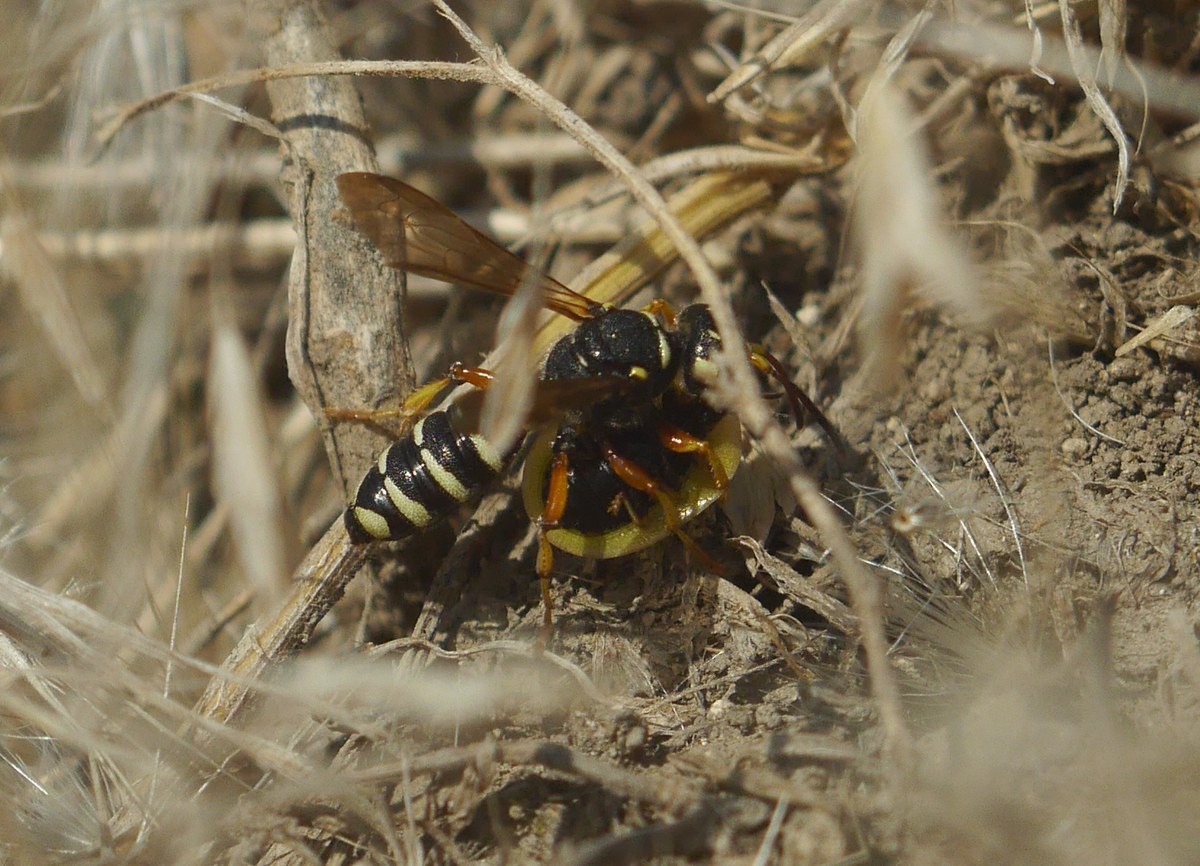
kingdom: Animalia
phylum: Arthropoda
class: Insecta
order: Hymenoptera
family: Crabronidae
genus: Cerceris
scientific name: Cerceris albofasciata
